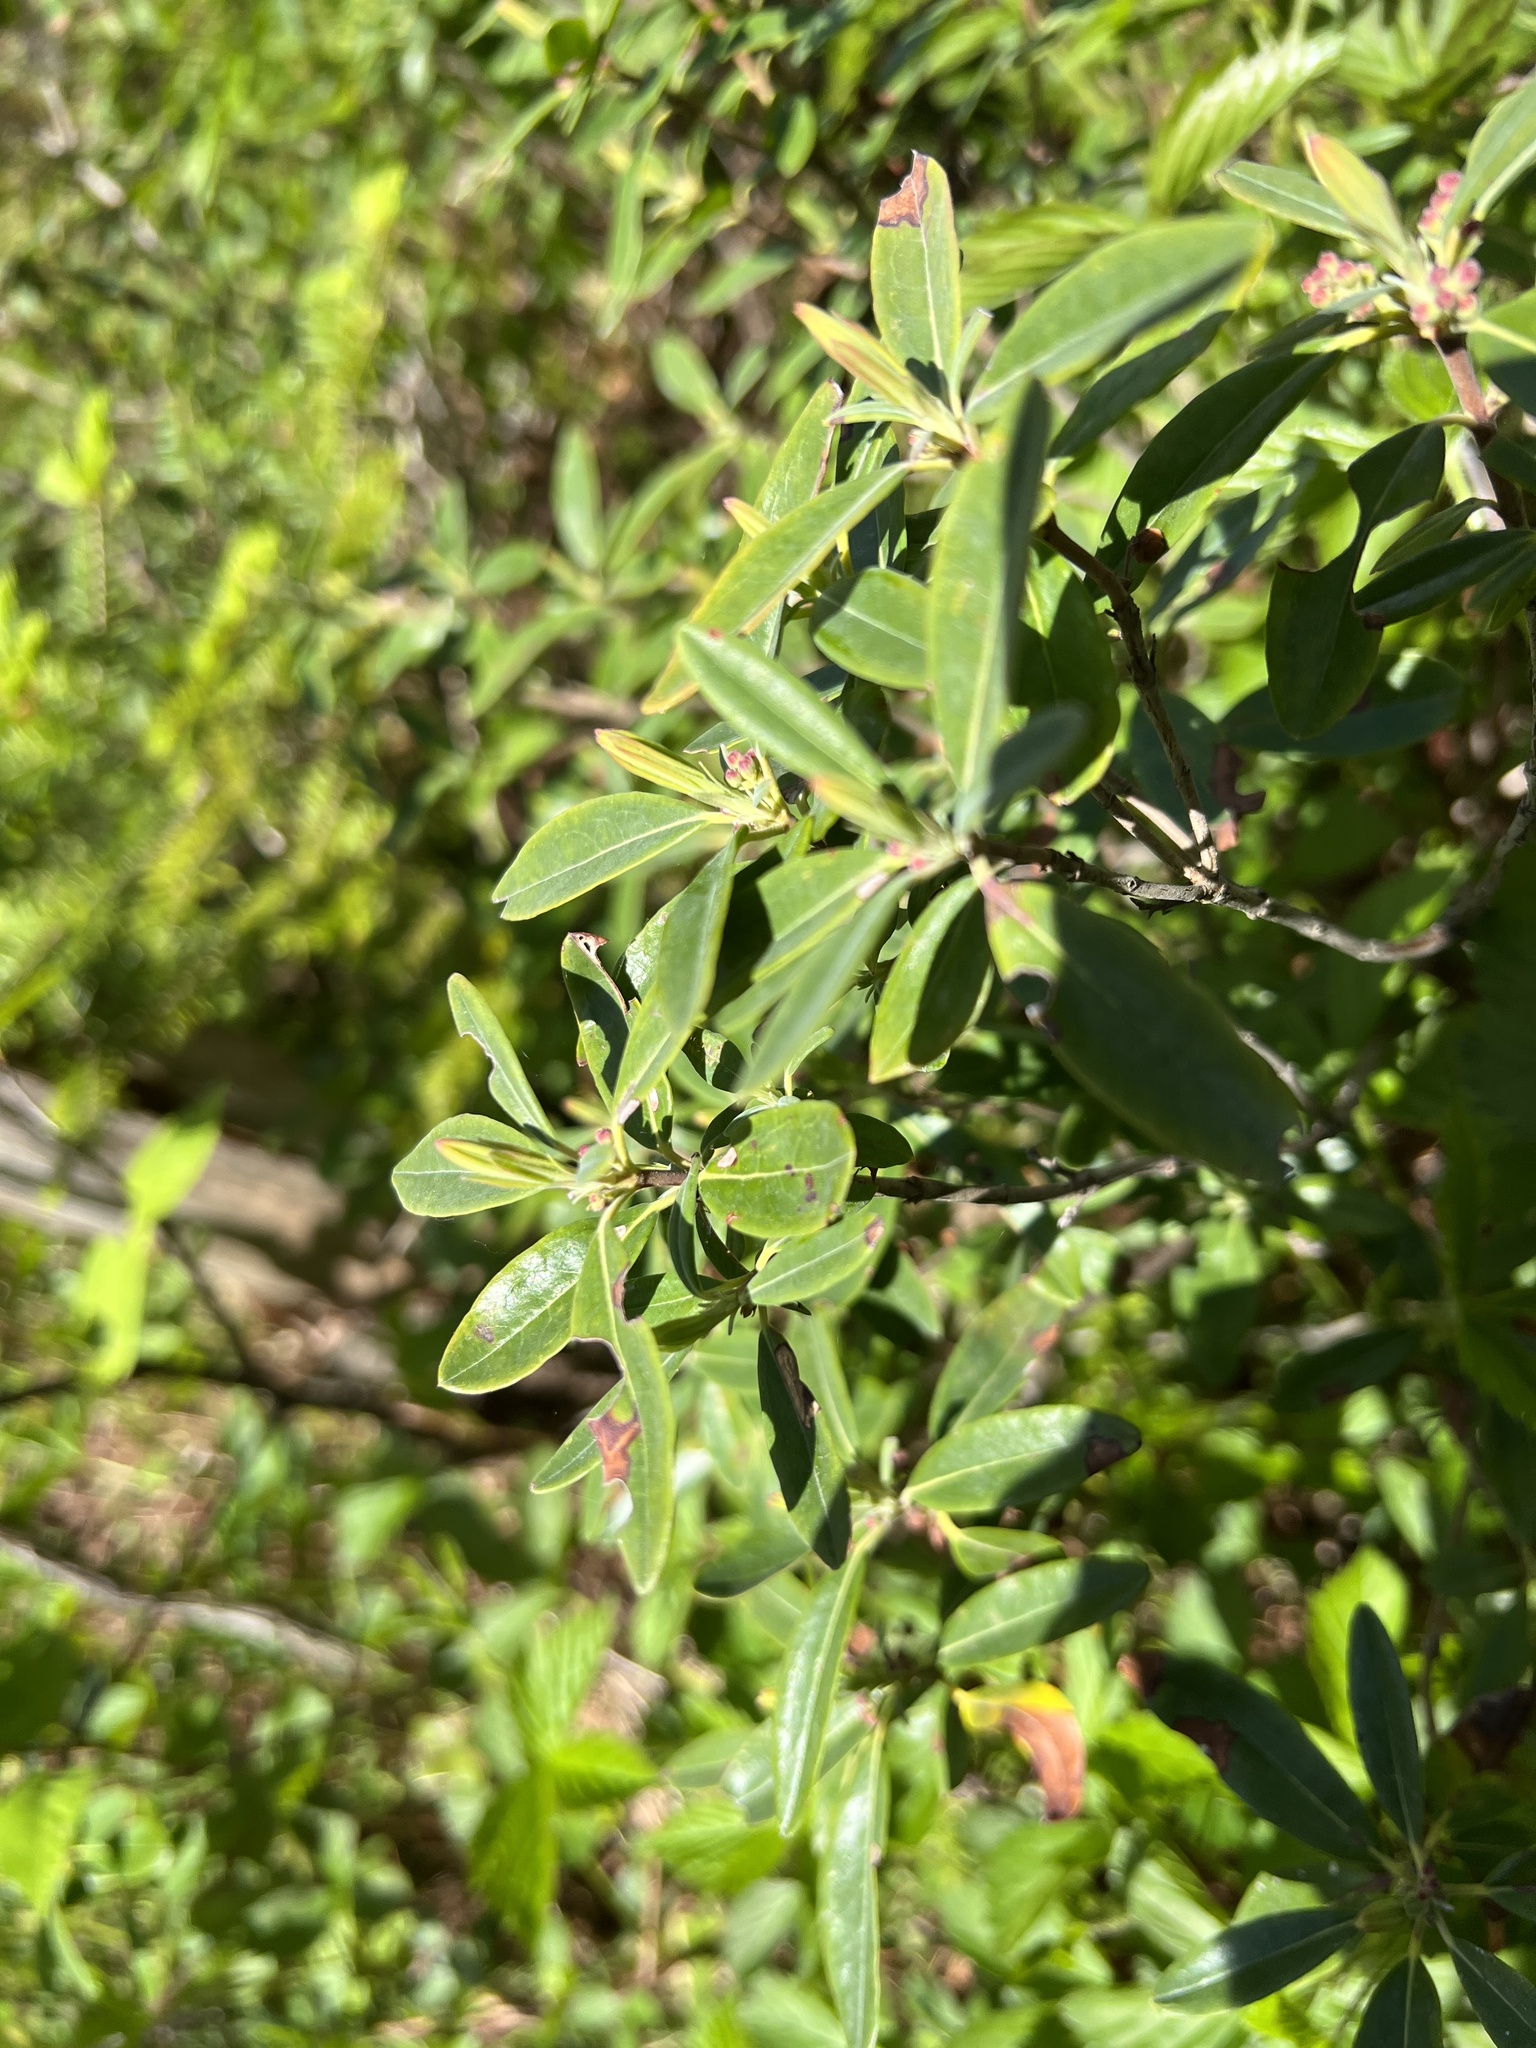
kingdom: Plantae
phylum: Tracheophyta
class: Magnoliopsida
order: Ericales
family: Ericaceae
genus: Kalmia
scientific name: Kalmia angustifolia
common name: Sheep-laurel
